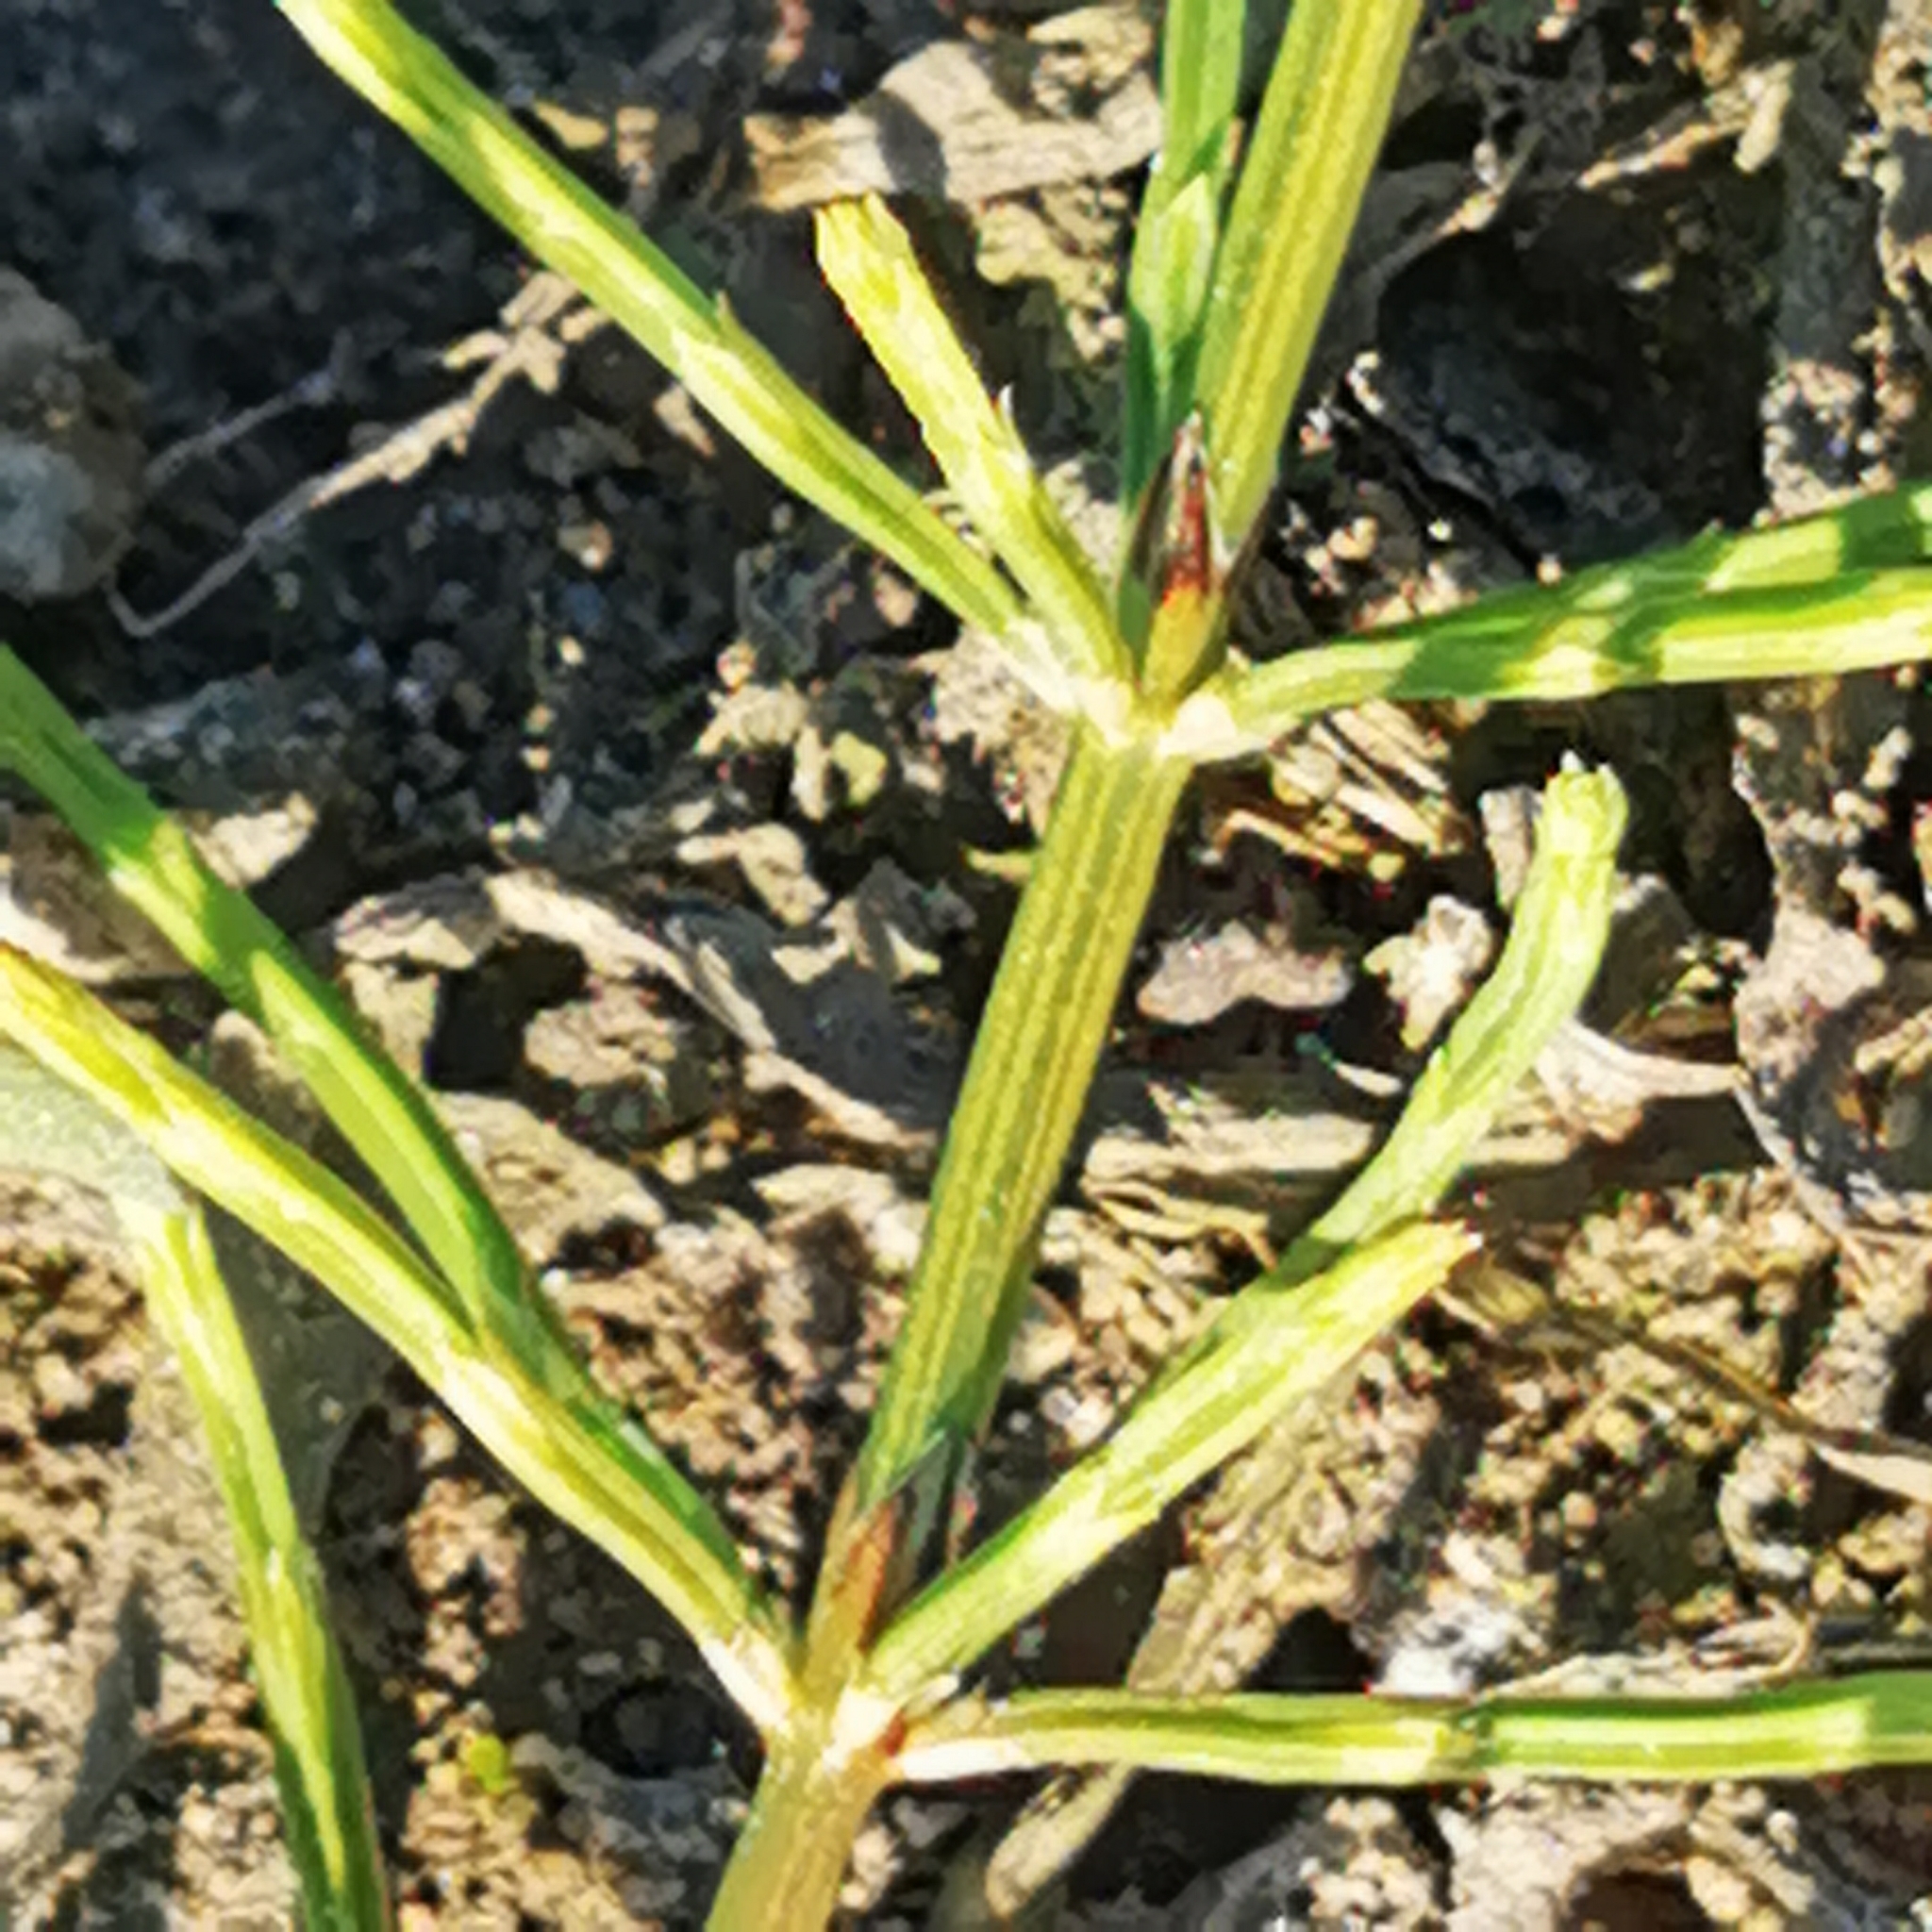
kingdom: Plantae
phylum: Tracheophyta
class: Polypodiopsida
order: Equisetales
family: Equisetaceae
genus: Equisetum
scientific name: Equisetum arvense
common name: Field horsetail
